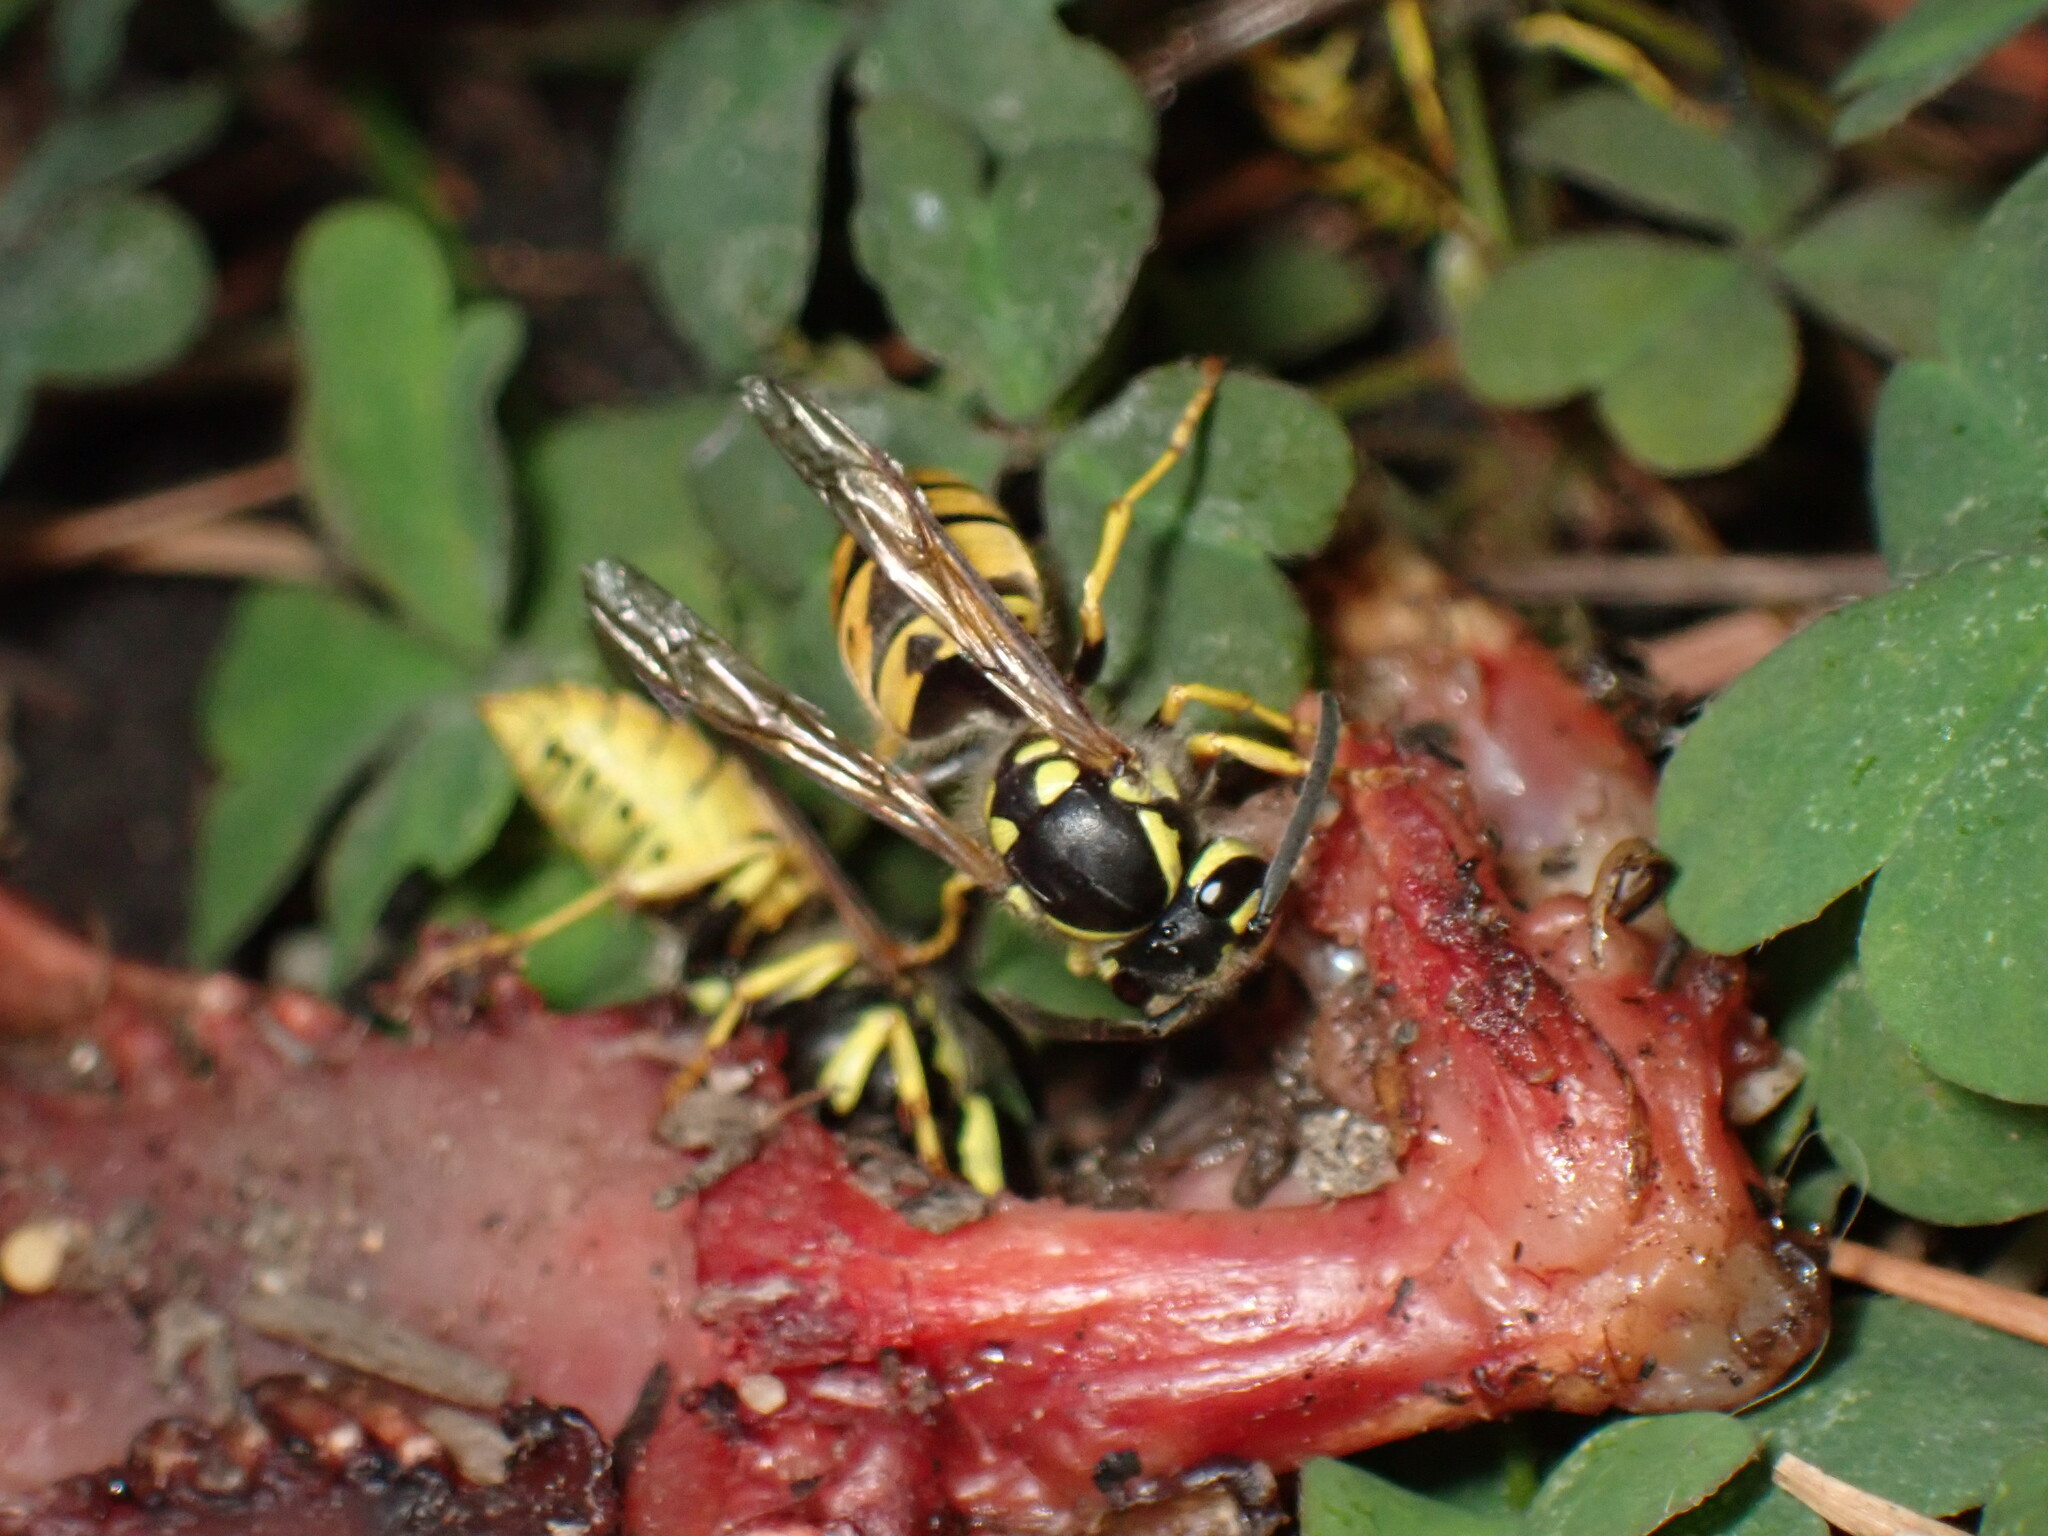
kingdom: Animalia
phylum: Arthropoda
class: Insecta
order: Hymenoptera
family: Vespidae
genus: Vespula
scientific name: Vespula germanica
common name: German wasp
